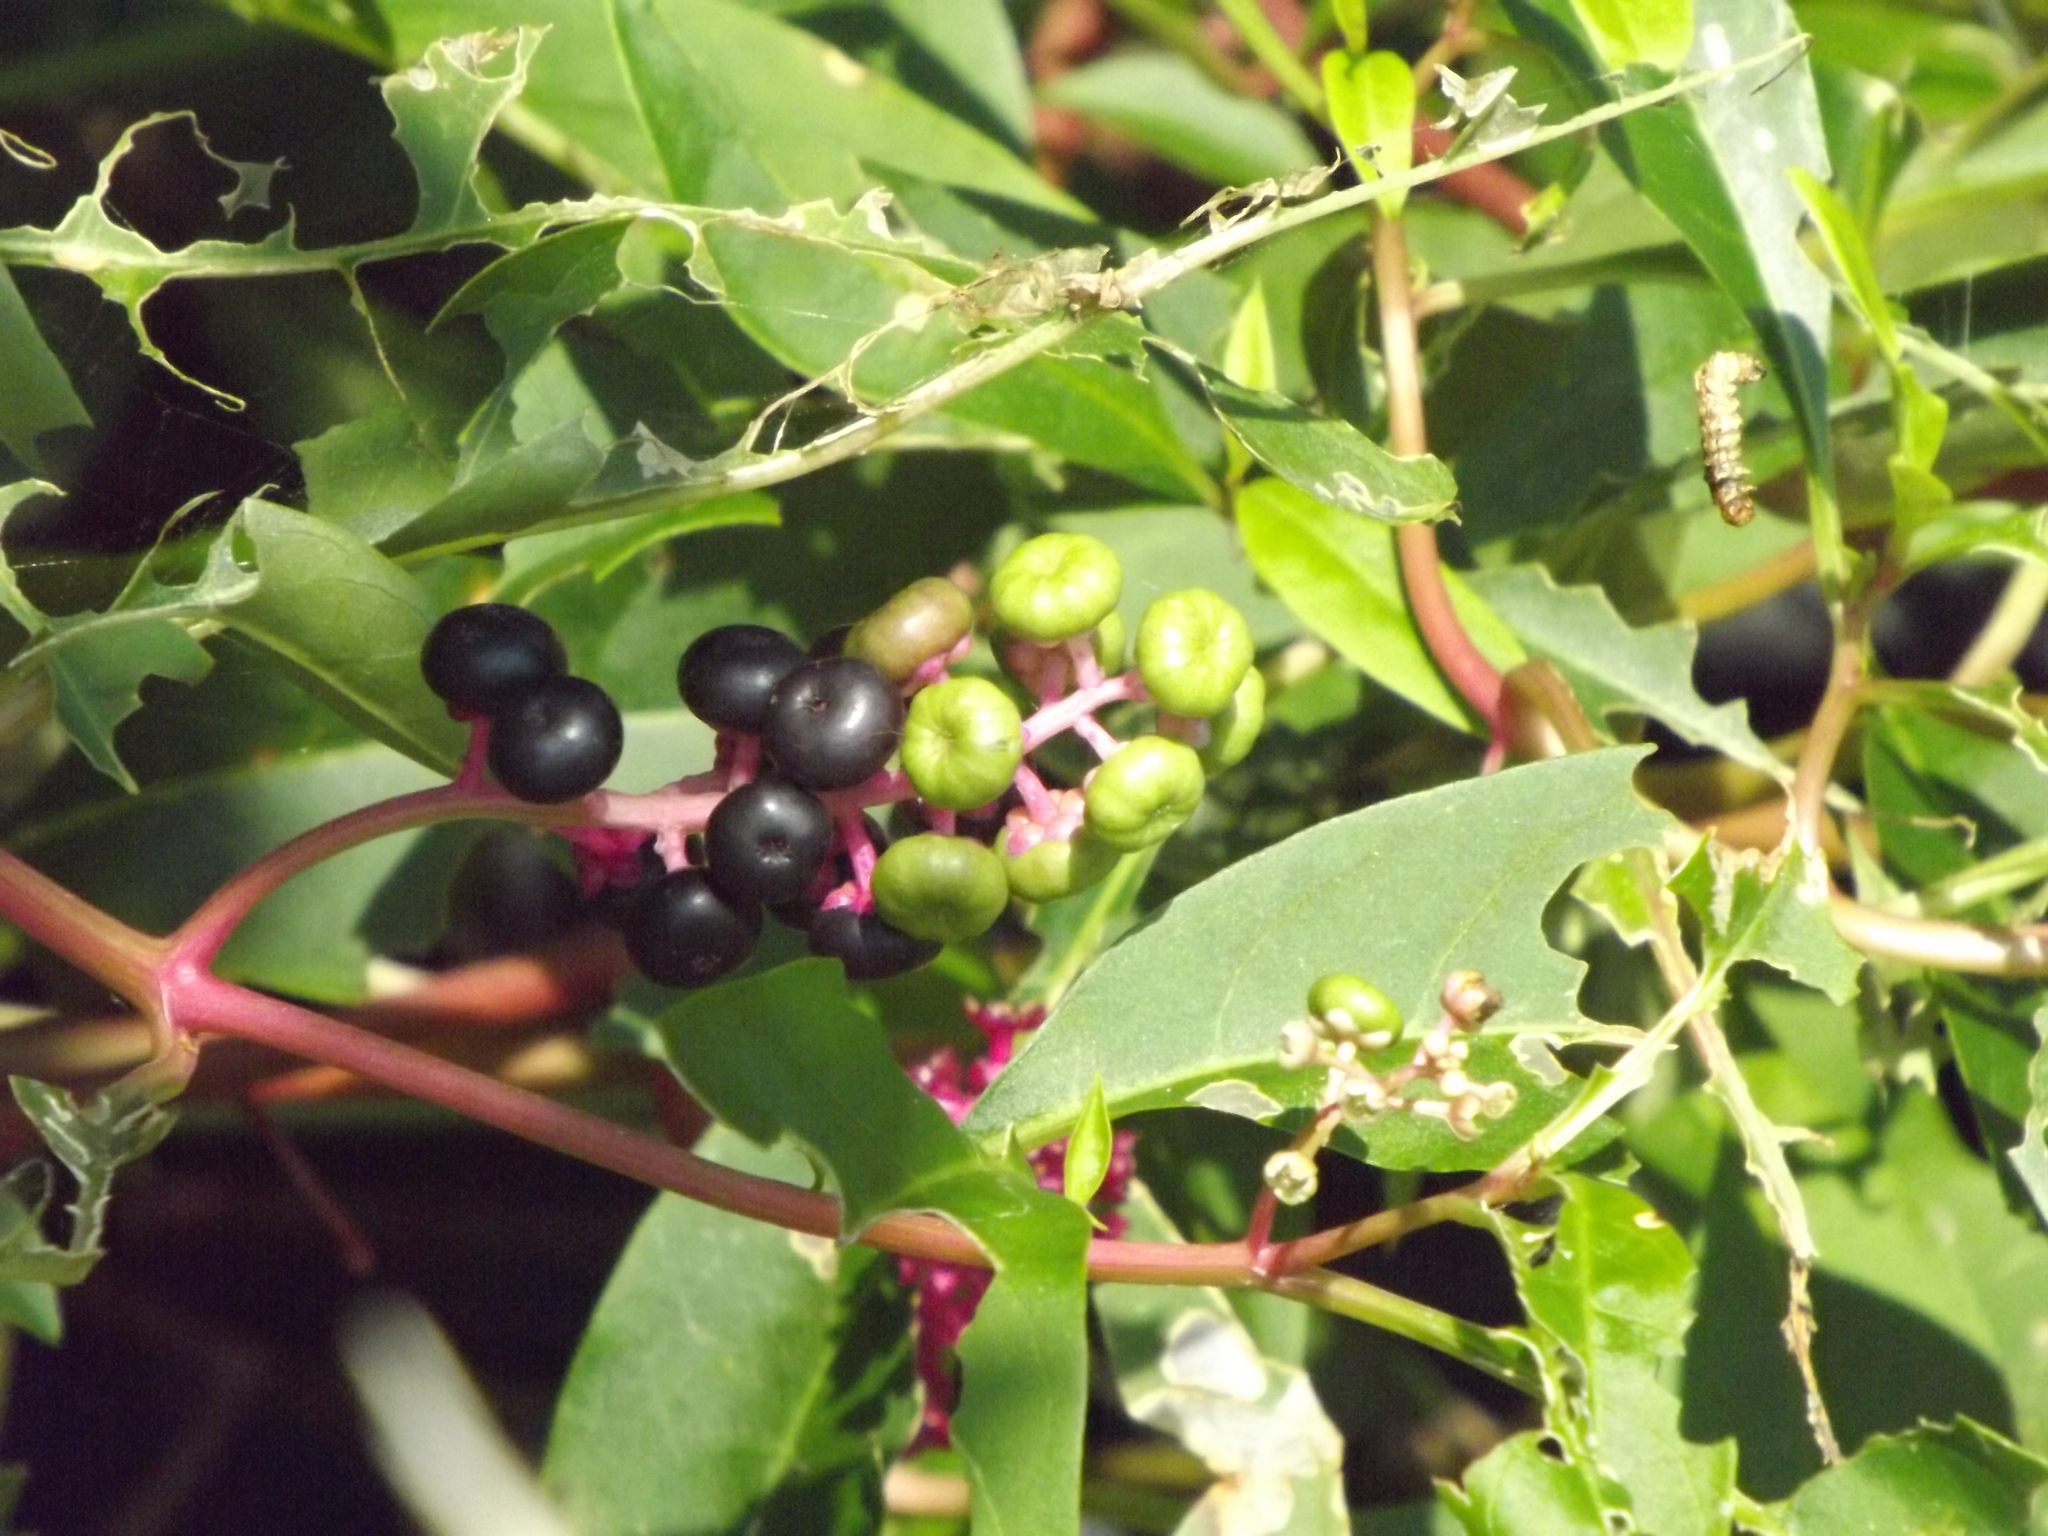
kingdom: Plantae
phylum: Tracheophyta
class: Magnoliopsida
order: Caryophyllales
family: Phytolaccaceae
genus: Phytolacca
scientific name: Phytolacca americana
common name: American pokeweed
